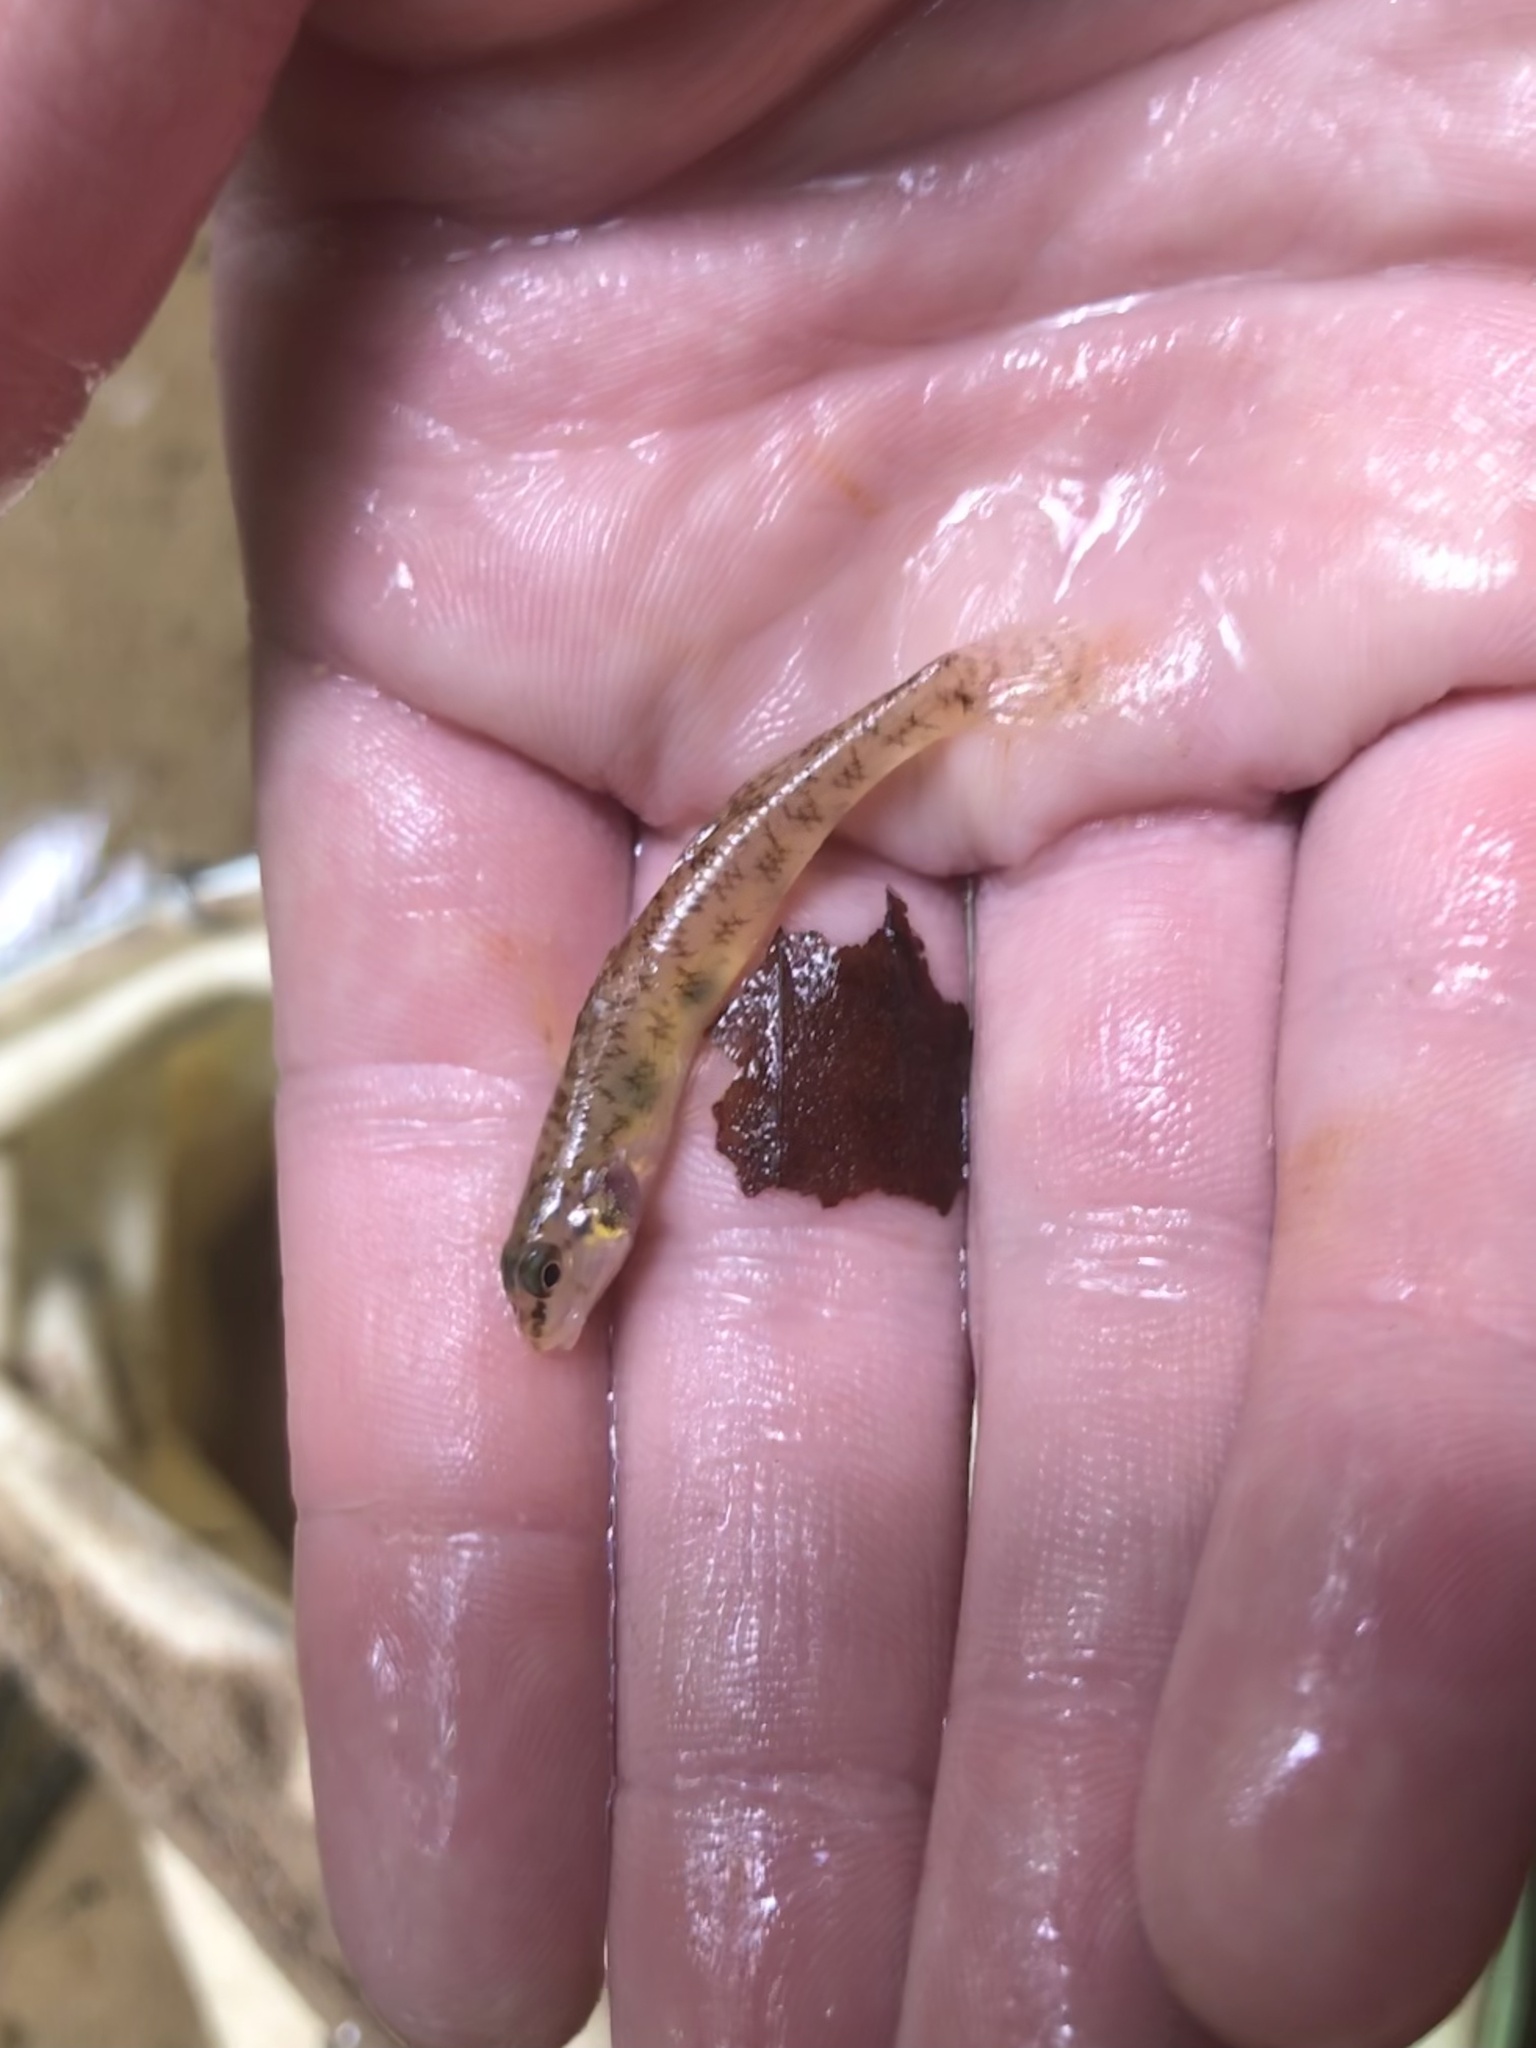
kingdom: Animalia
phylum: Chordata
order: Perciformes
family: Percidae
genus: Etheostoma
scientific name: Etheostoma olmstedi
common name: Tessellated darter
